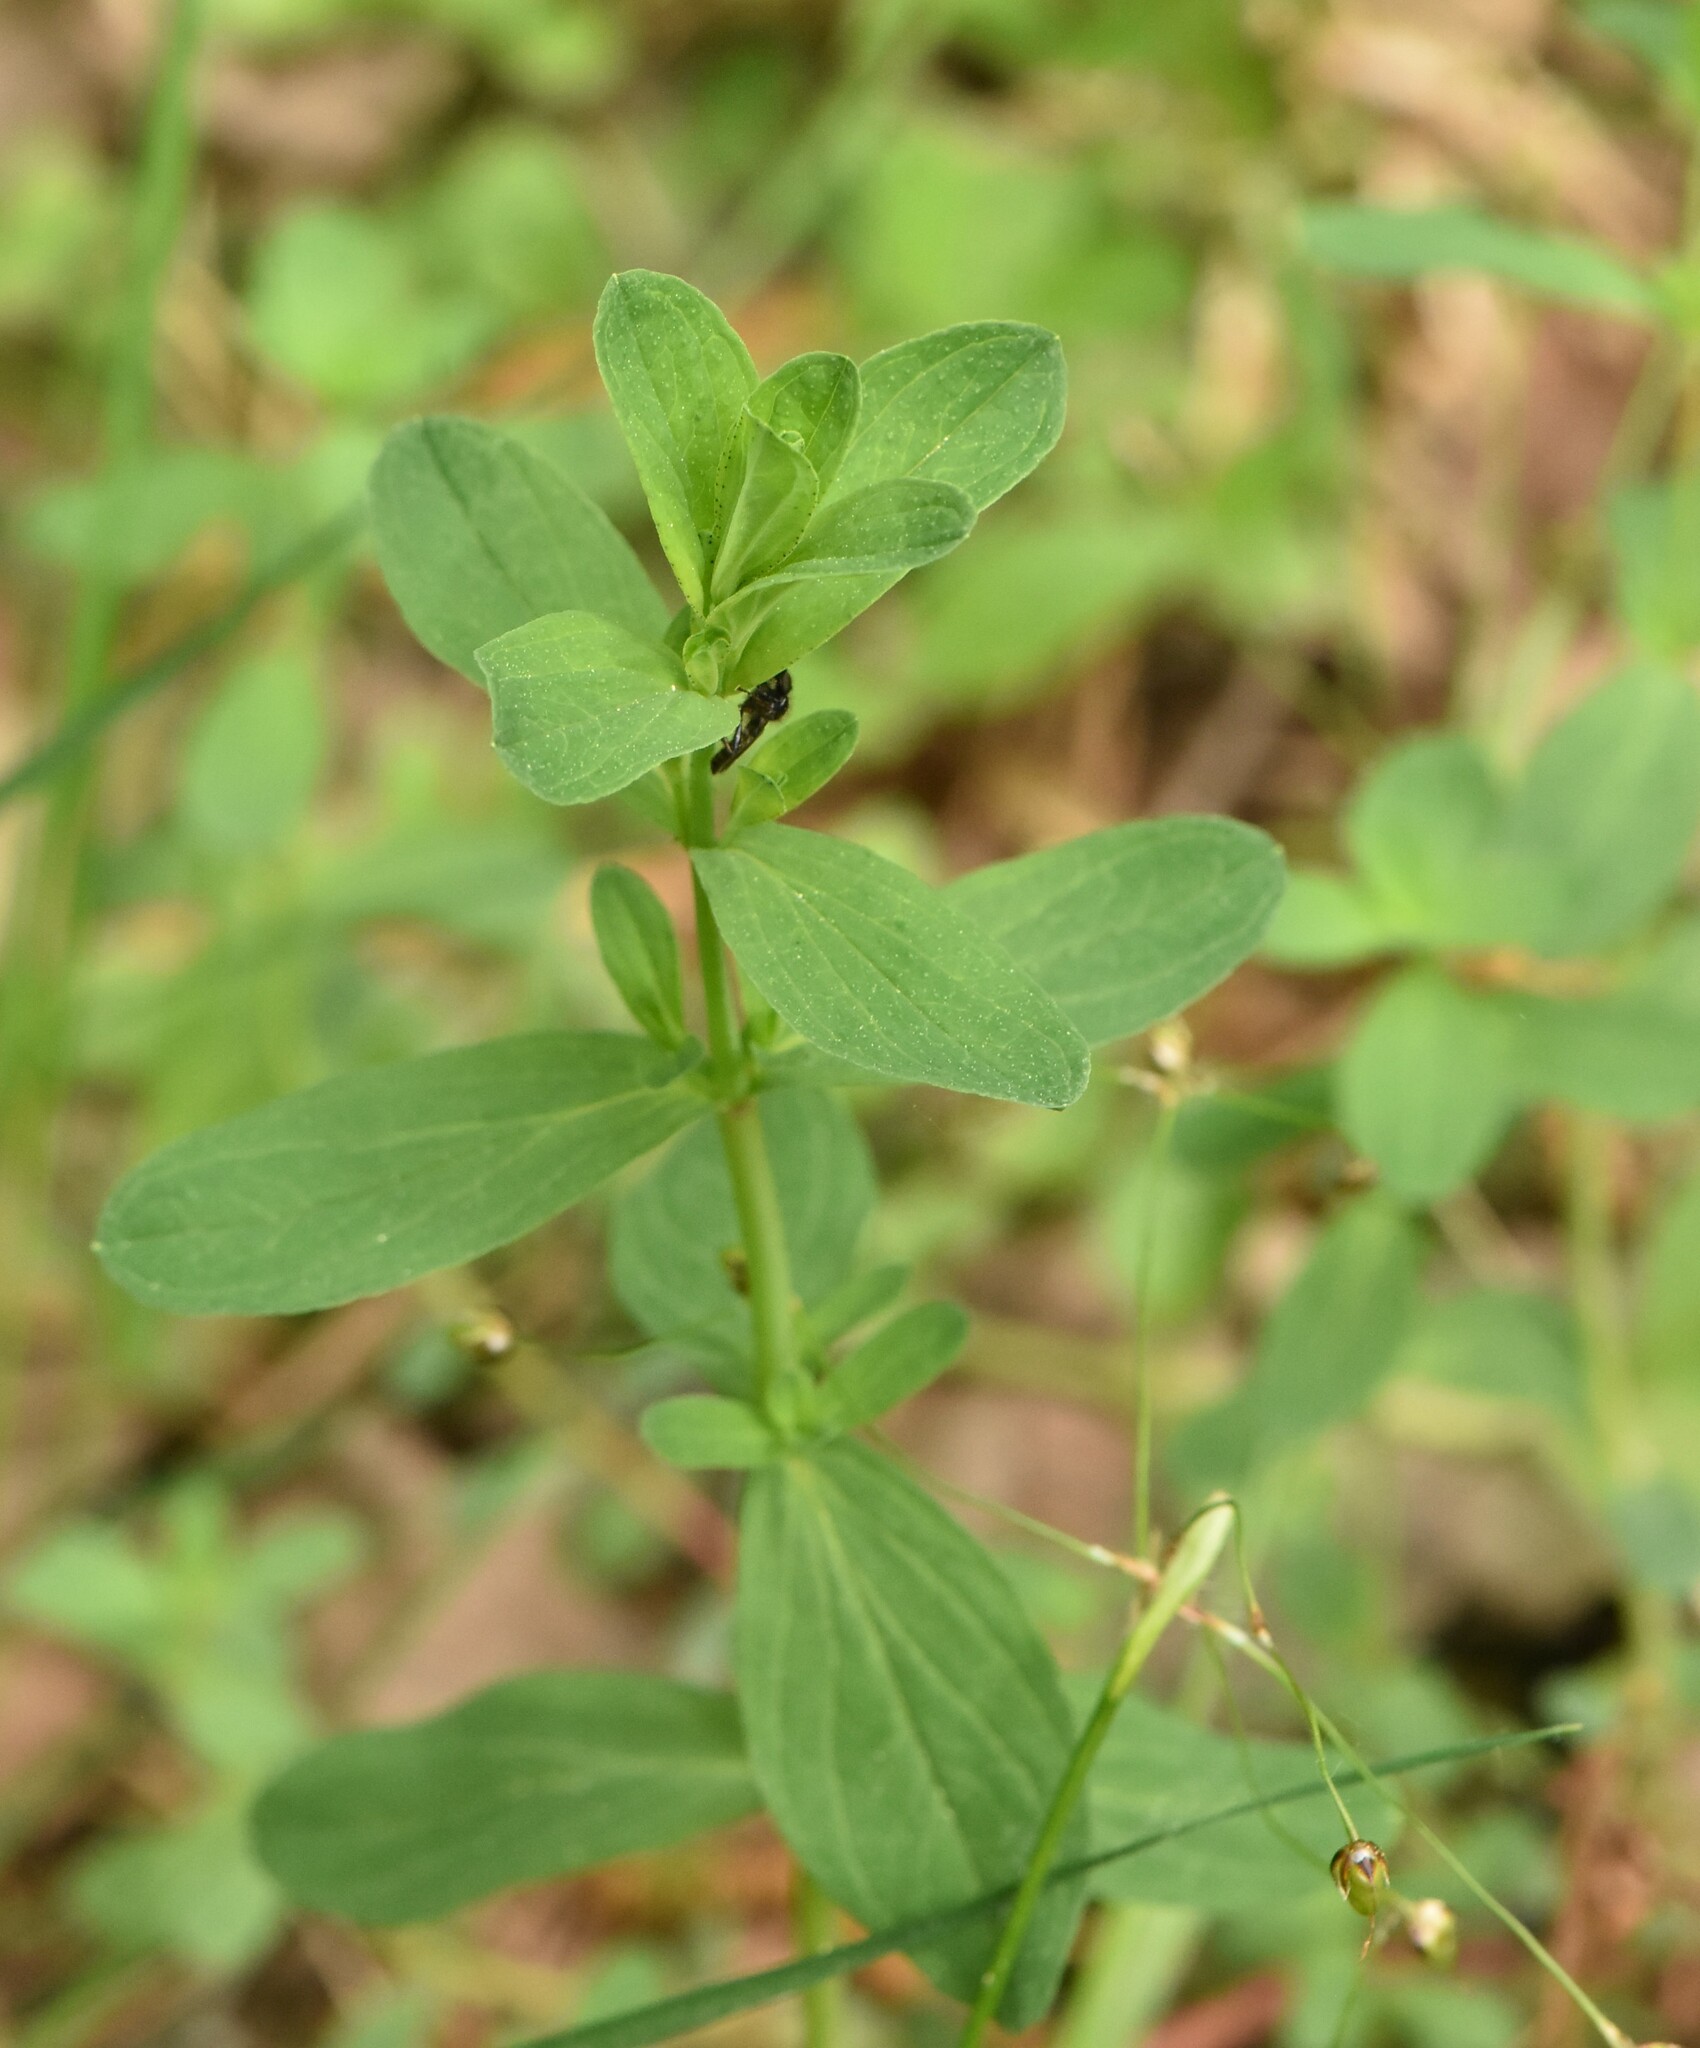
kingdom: Plantae
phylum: Tracheophyta
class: Magnoliopsida
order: Malpighiales
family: Hypericaceae
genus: Hypericum
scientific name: Hypericum perforatum
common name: Common st. johnswort
